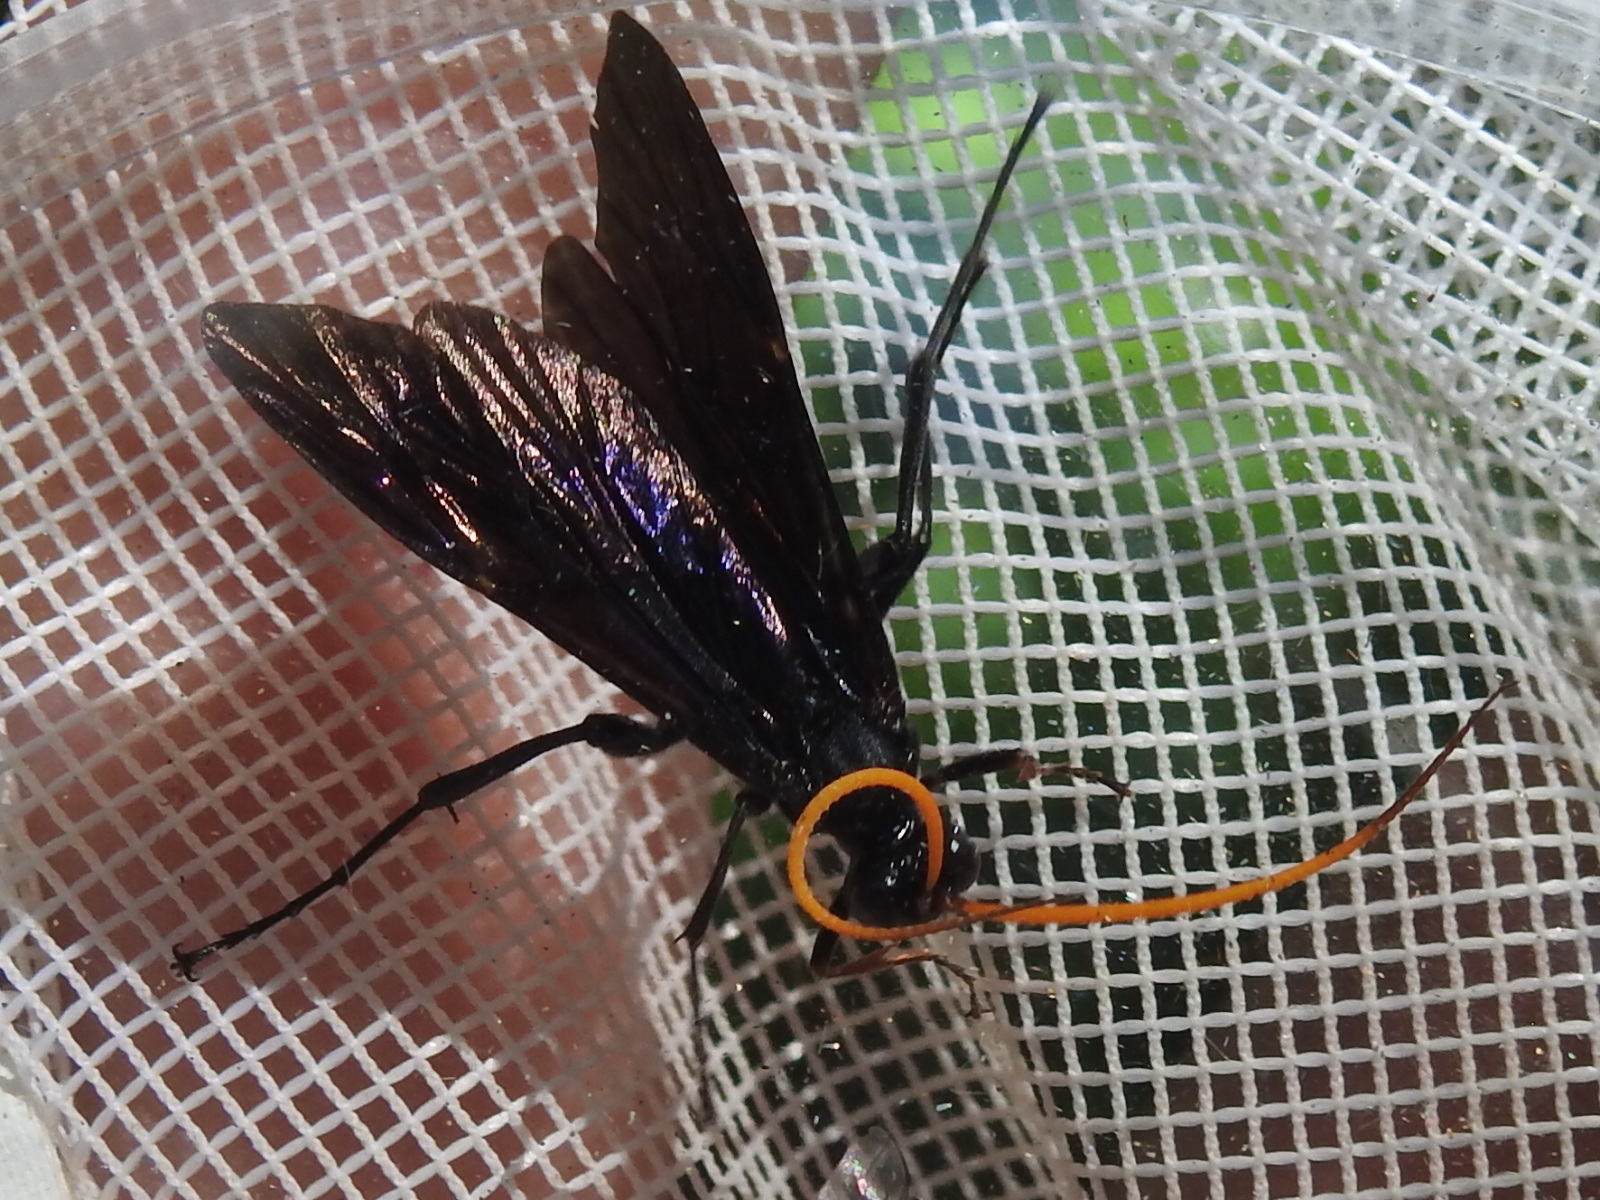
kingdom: Animalia
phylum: Arthropoda
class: Insecta
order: Hymenoptera
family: Ichneumonidae
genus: Gnamptopelta
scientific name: Gnamptopelta obsidianator
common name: Bent-shielded besieger wasp
